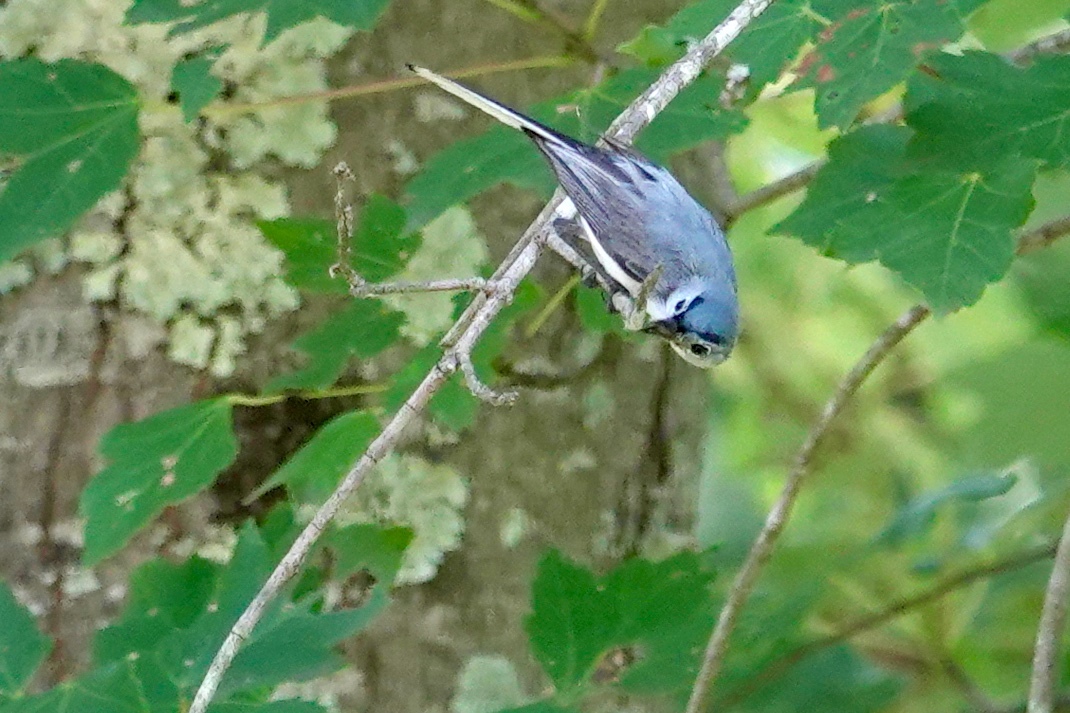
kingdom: Animalia
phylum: Chordata
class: Aves
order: Passeriformes
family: Polioptilidae
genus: Polioptila
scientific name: Polioptila caerulea
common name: Blue-gray gnatcatcher
